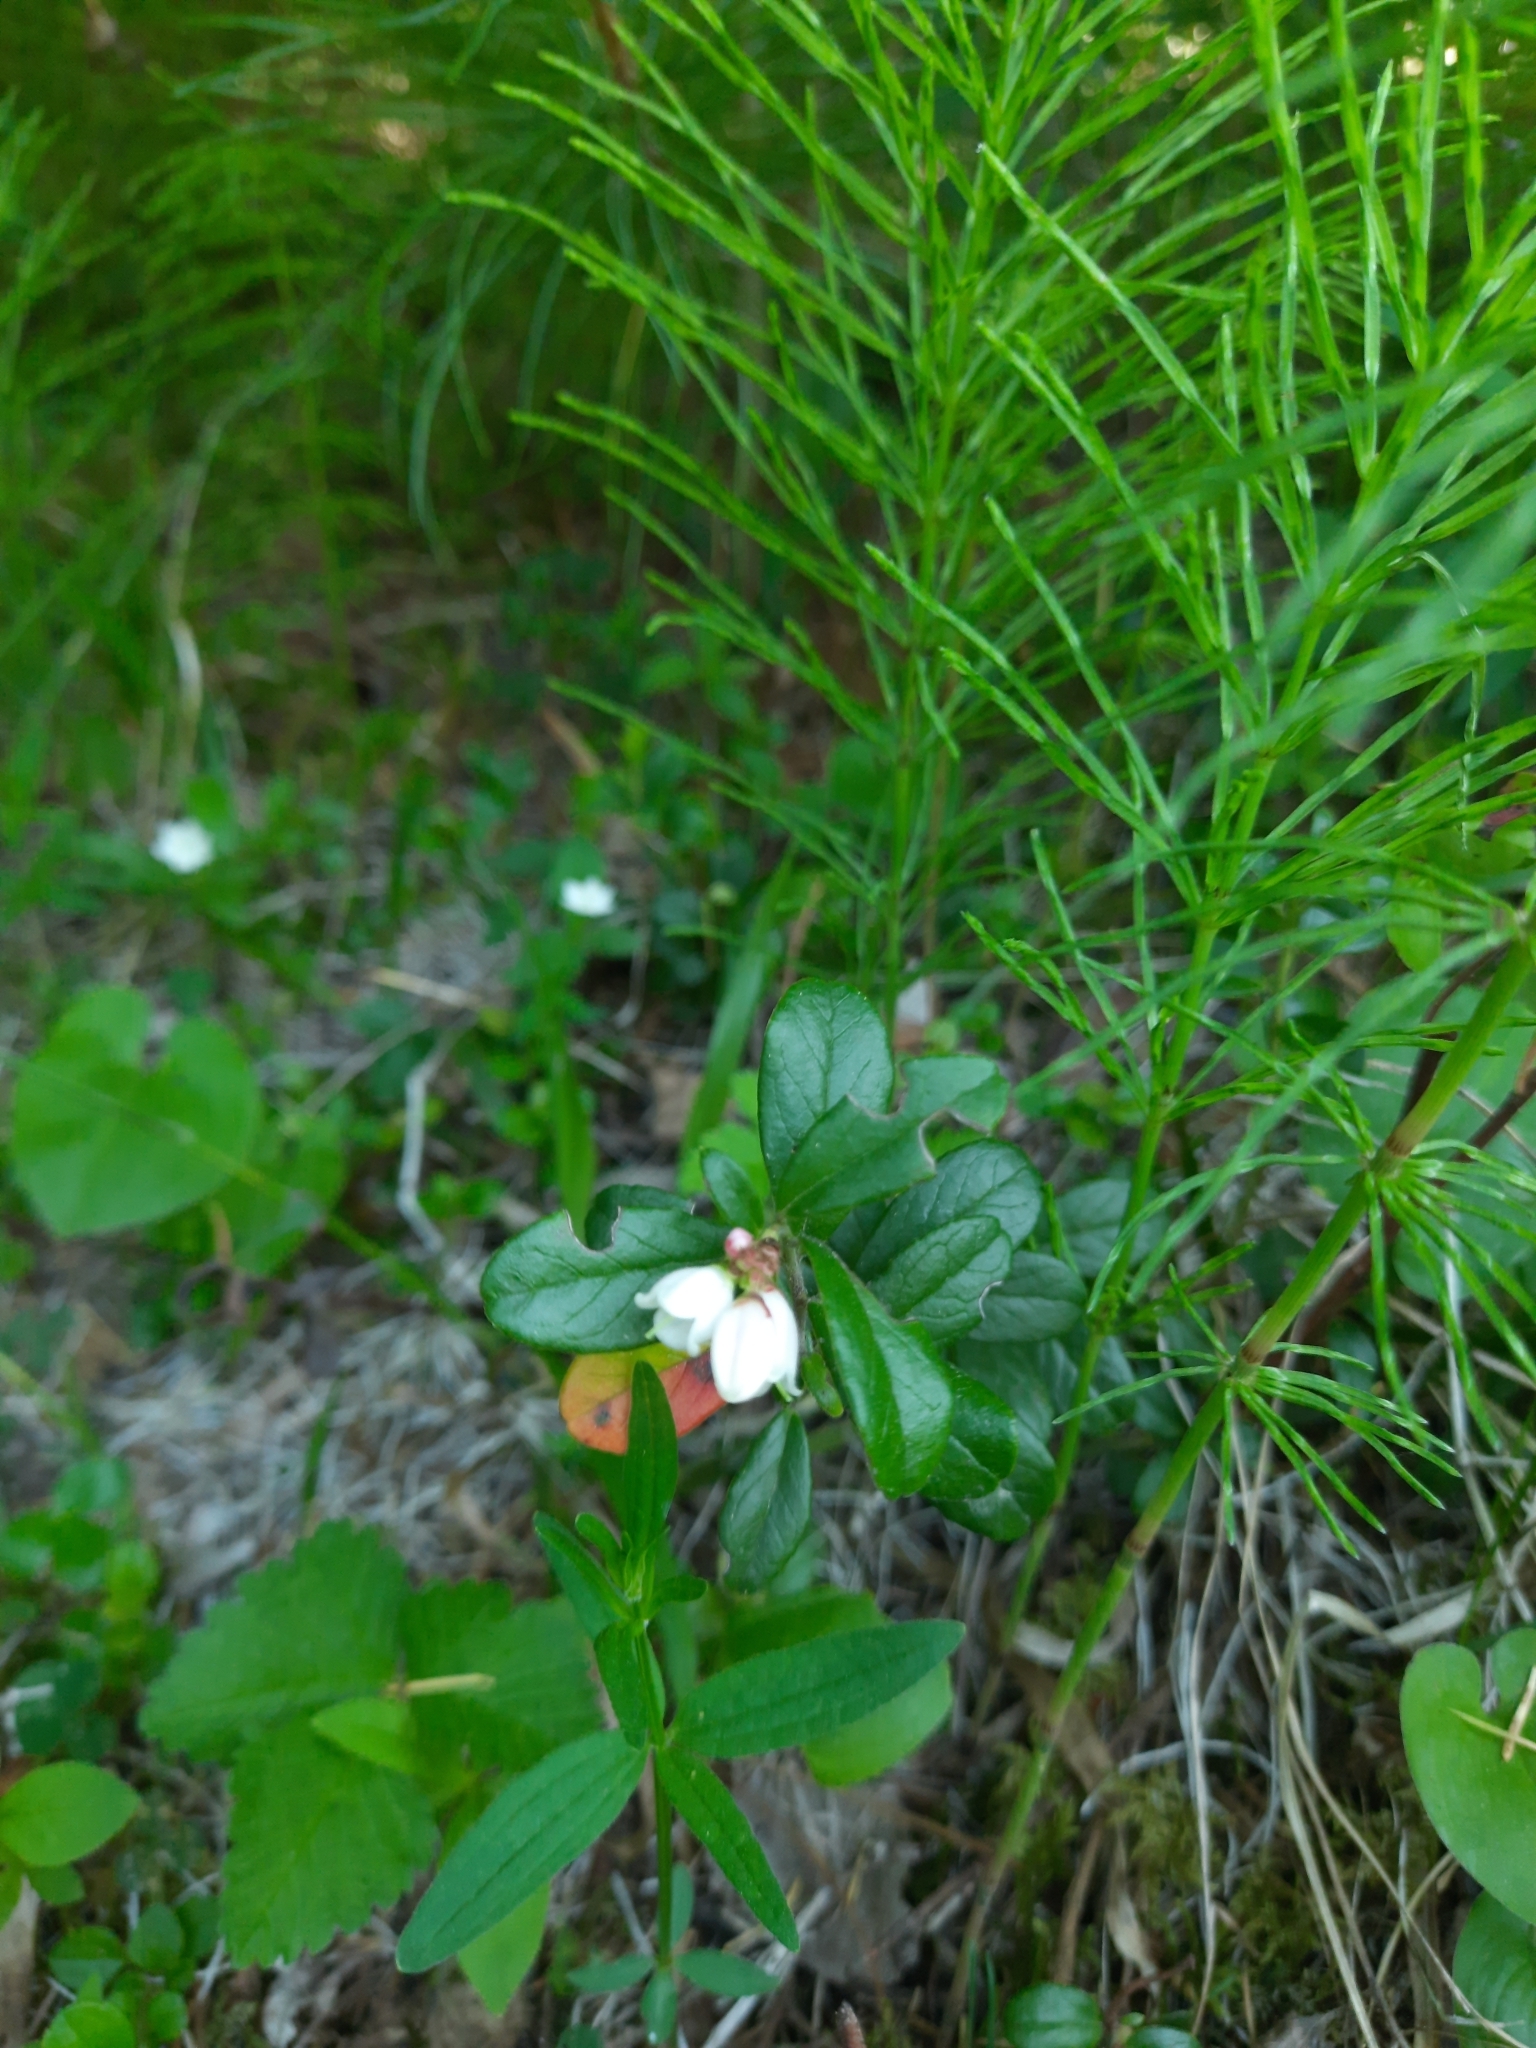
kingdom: Plantae
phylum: Tracheophyta
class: Magnoliopsida
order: Ericales
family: Ericaceae
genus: Vaccinium
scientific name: Vaccinium vitis-idaea
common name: Cowberry
